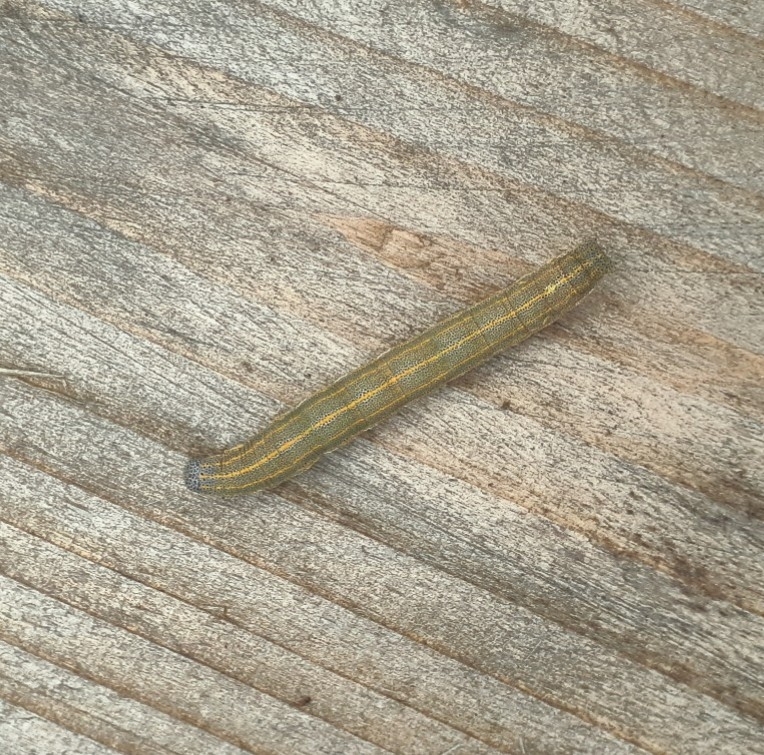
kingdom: Animalia
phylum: Arthropoda
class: Insecta
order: Lepidoptera
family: Noctuidae
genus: Aedia
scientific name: Aedia leucomelas
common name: Sorcerer
